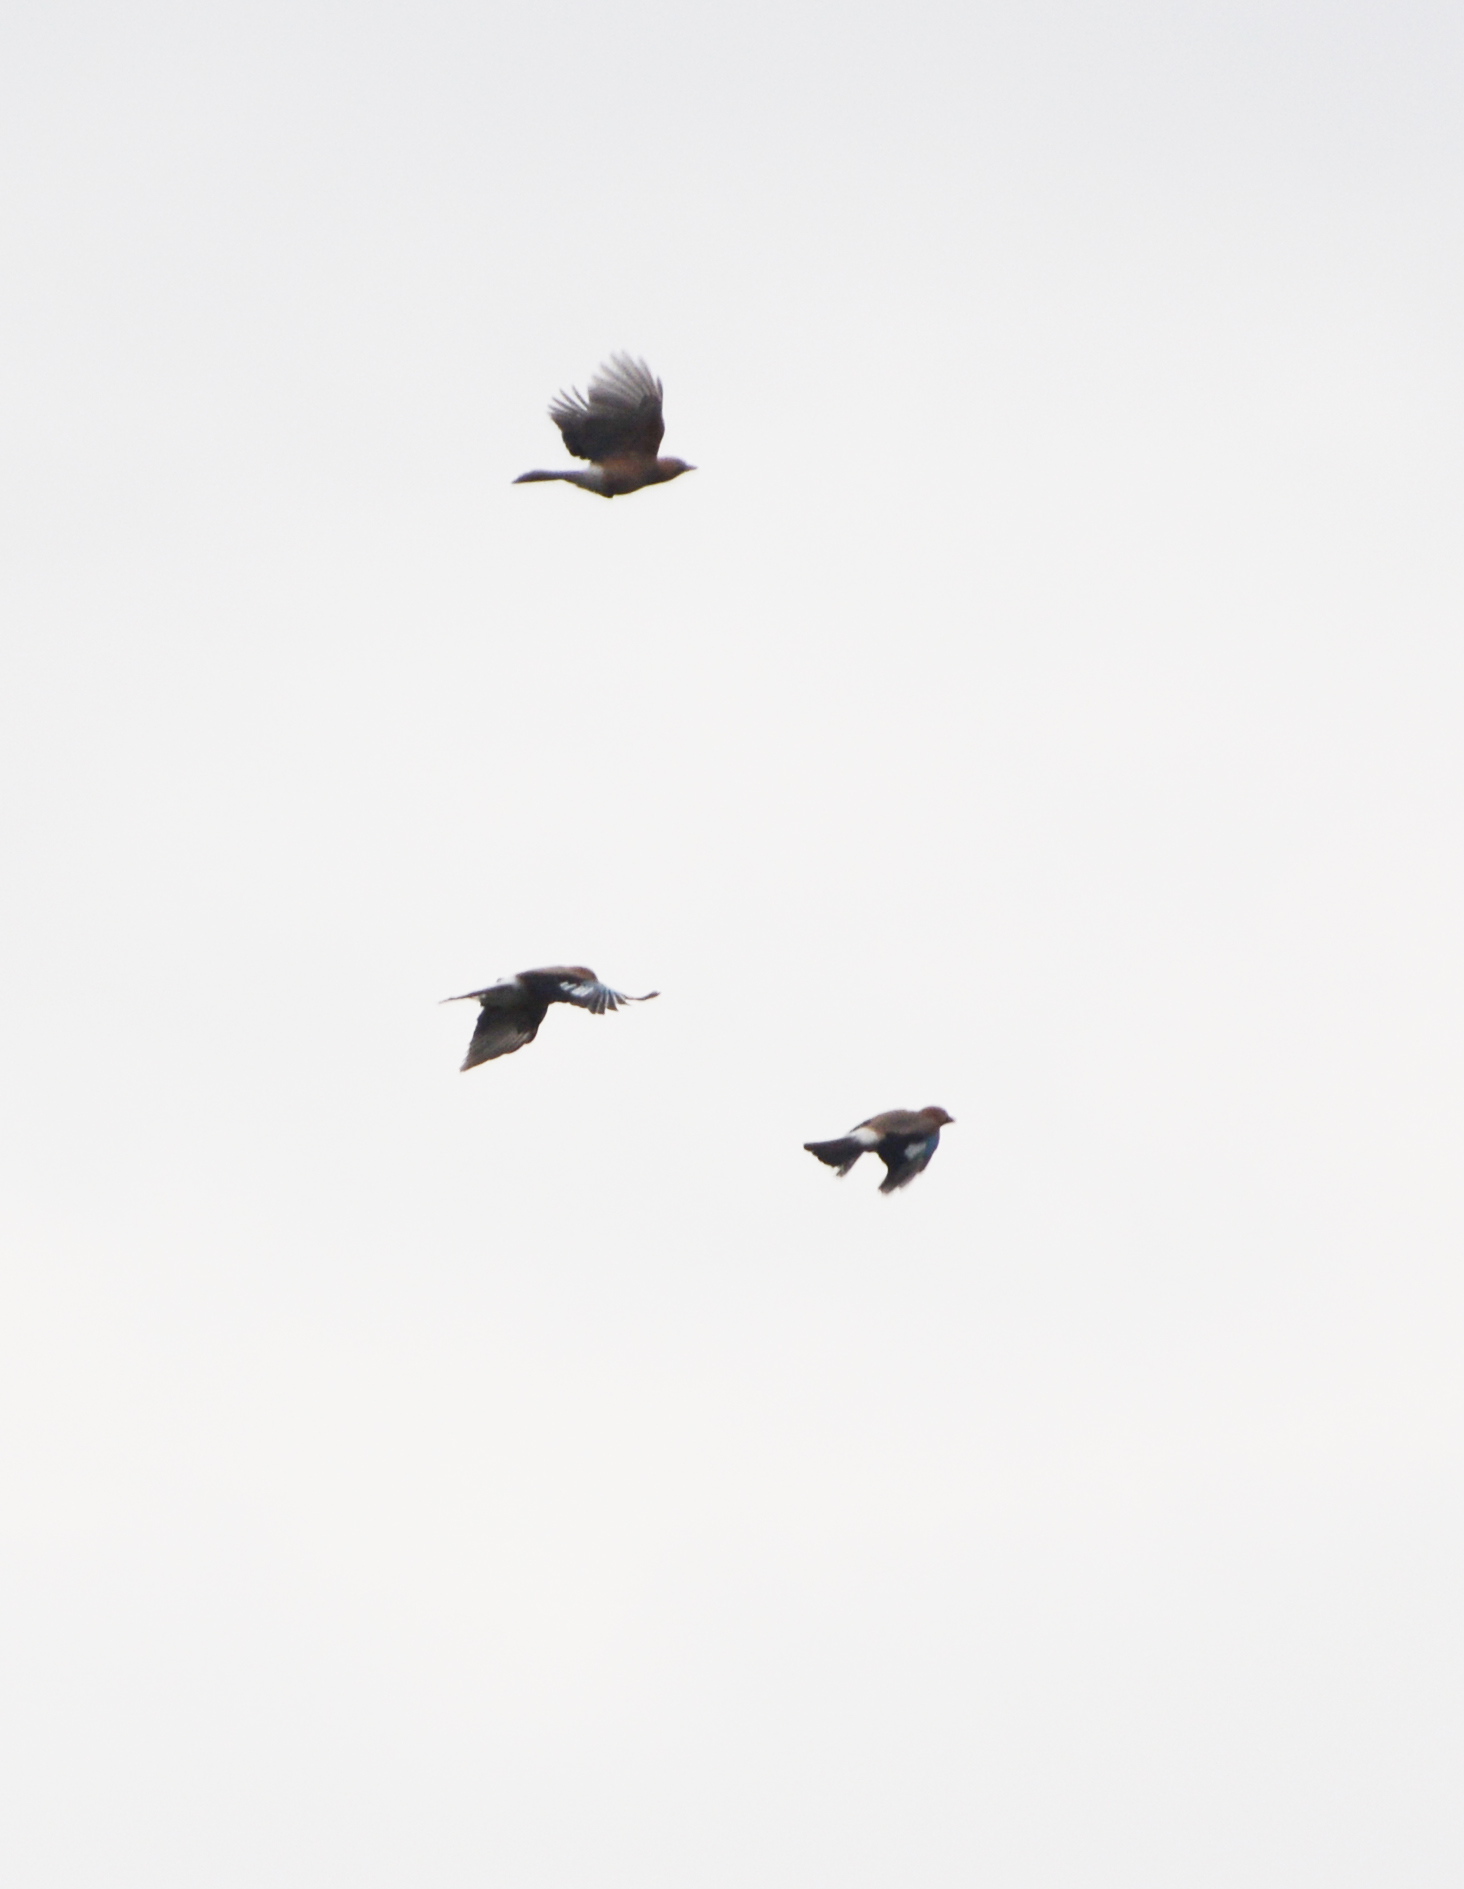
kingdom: Animalia
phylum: Chordata
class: Aves
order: Passeriformes
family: Corvidae
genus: Garrulus
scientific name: Garrulus glandarius
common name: Eurasian jay
